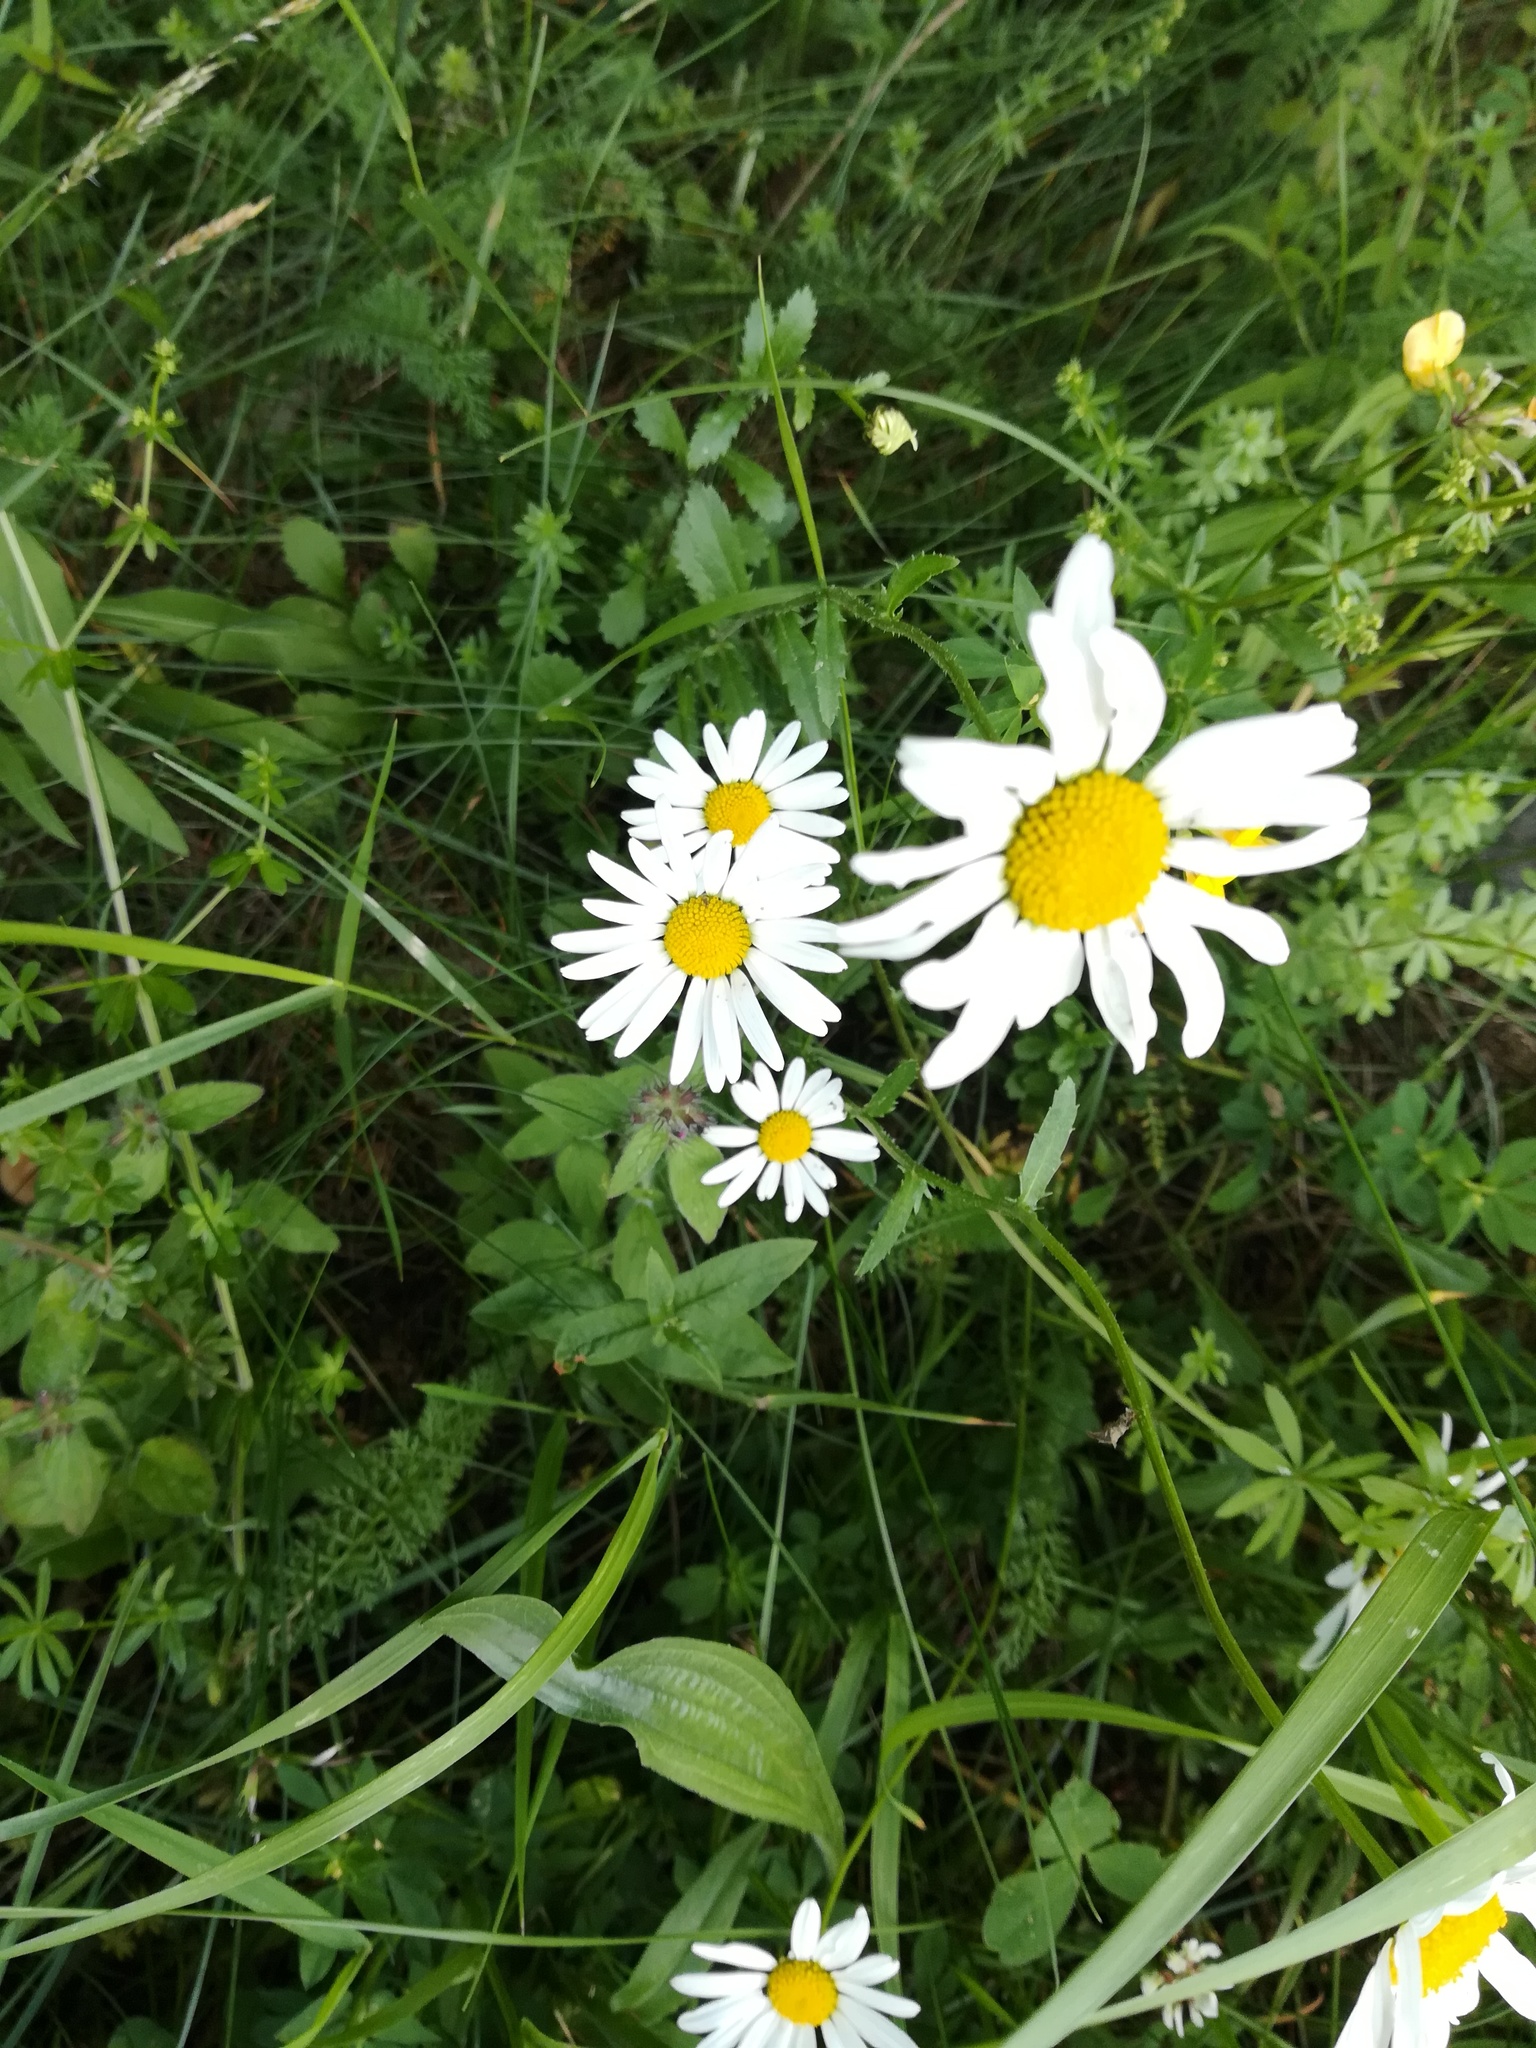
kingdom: Plantae
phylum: Tracheophyta
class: Magnoliopsida
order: Asterales
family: Asteraceae
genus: Leucanthemum
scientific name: Leucanthemum vulgare
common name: Oxeye daisy
